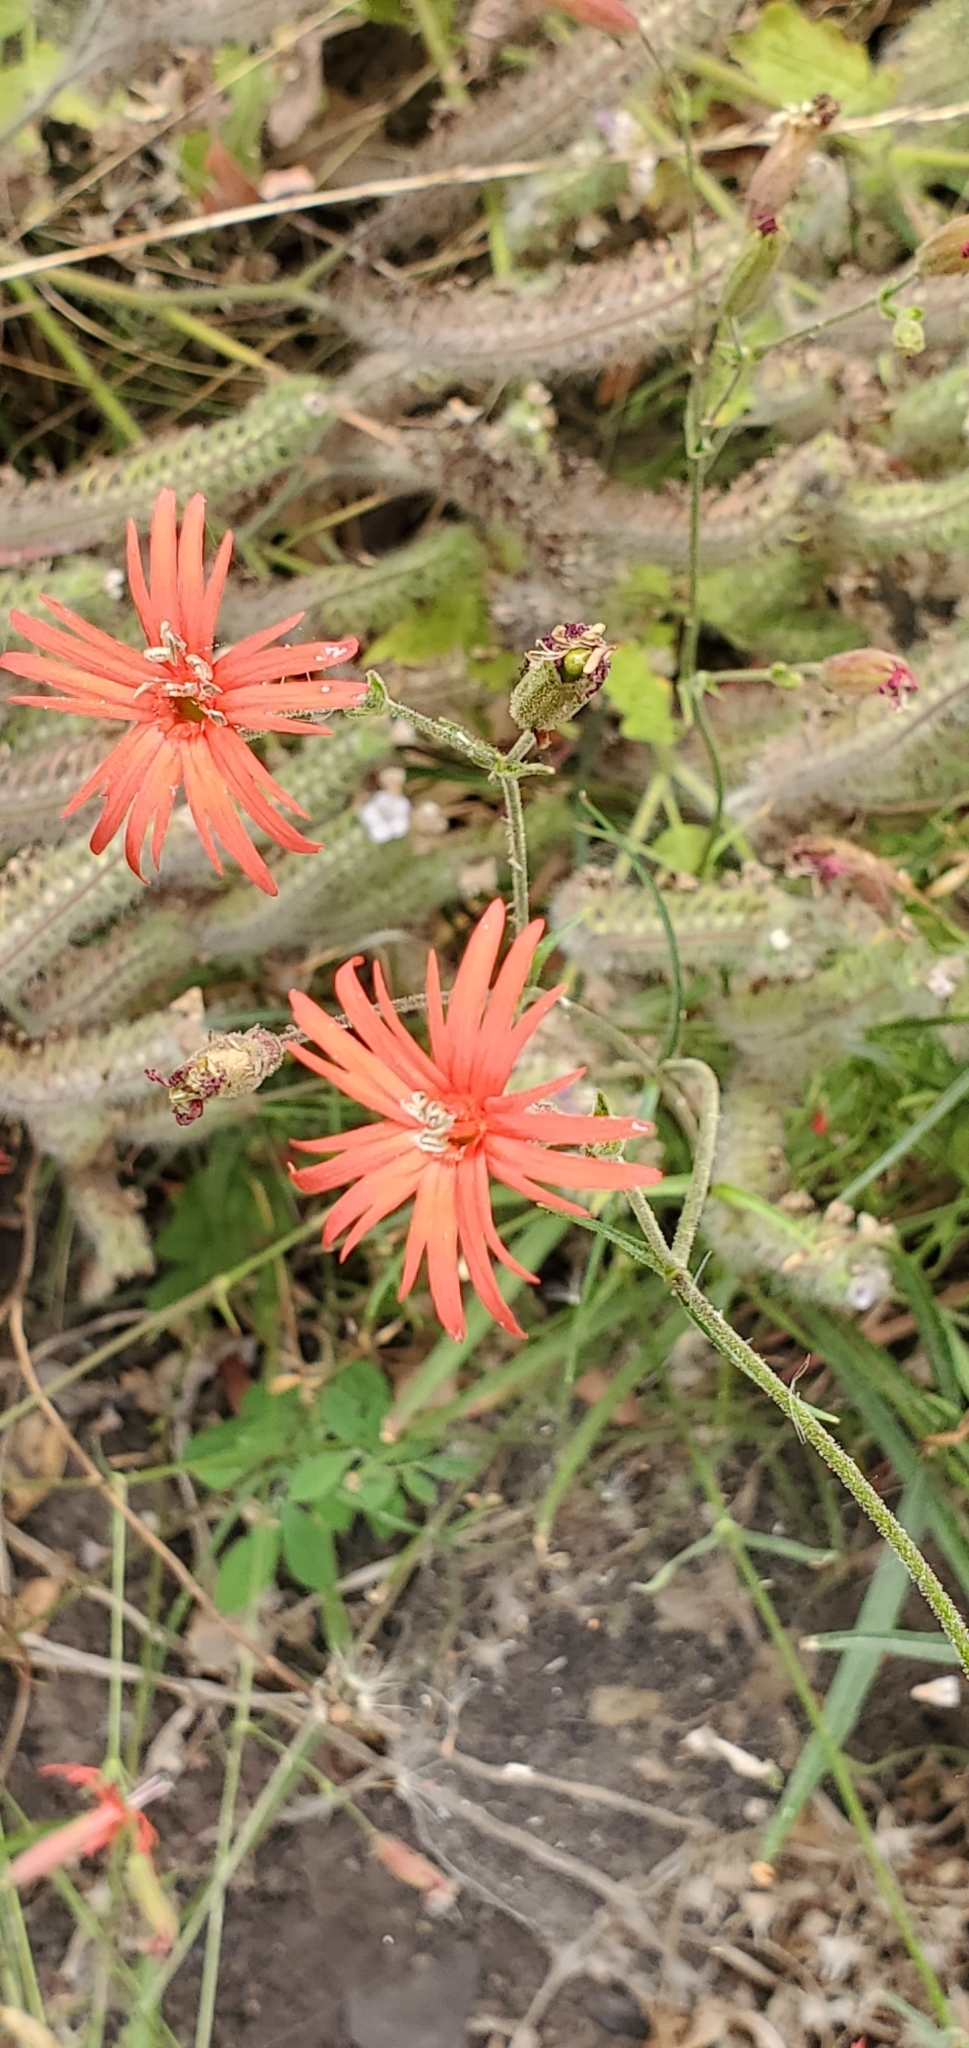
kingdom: Plantae
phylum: Tracheophyta
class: Magnoliopsida
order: Caryophyllales
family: Caryophyllaceae
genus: Silene
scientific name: Silene laciniata
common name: Indian-pink
